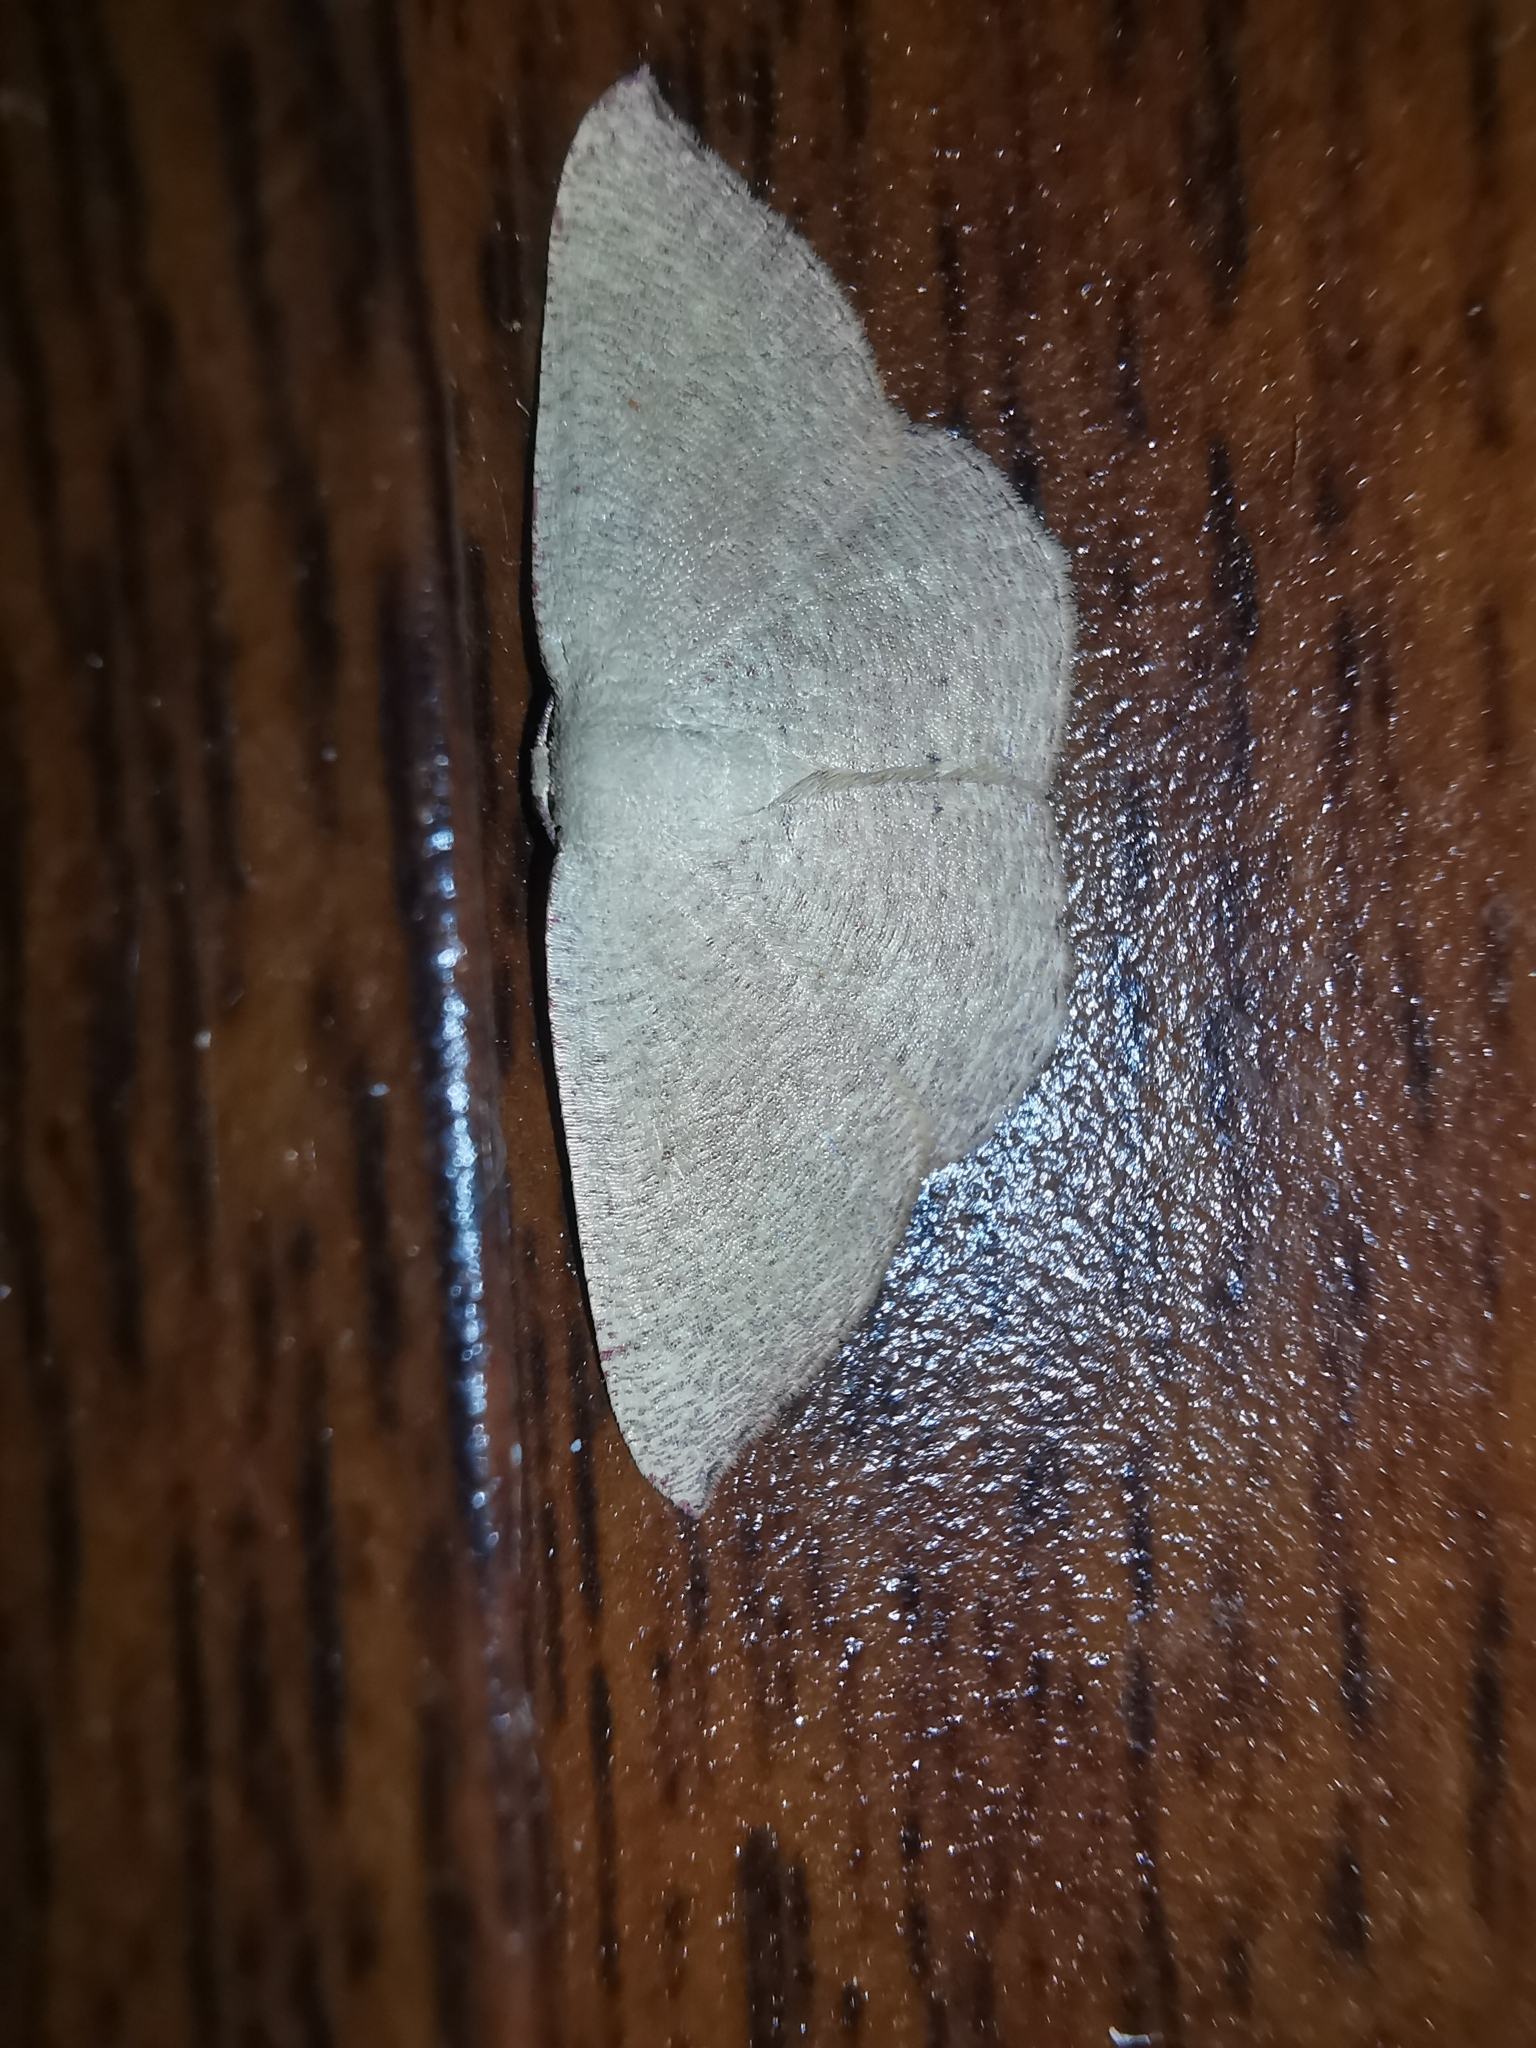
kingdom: Animalia
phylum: Arthropoda
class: Insecta
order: Lepidoptera
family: Geometridae
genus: Cyclophora
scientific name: Cyclophora puppillaria
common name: Blair's mocha
